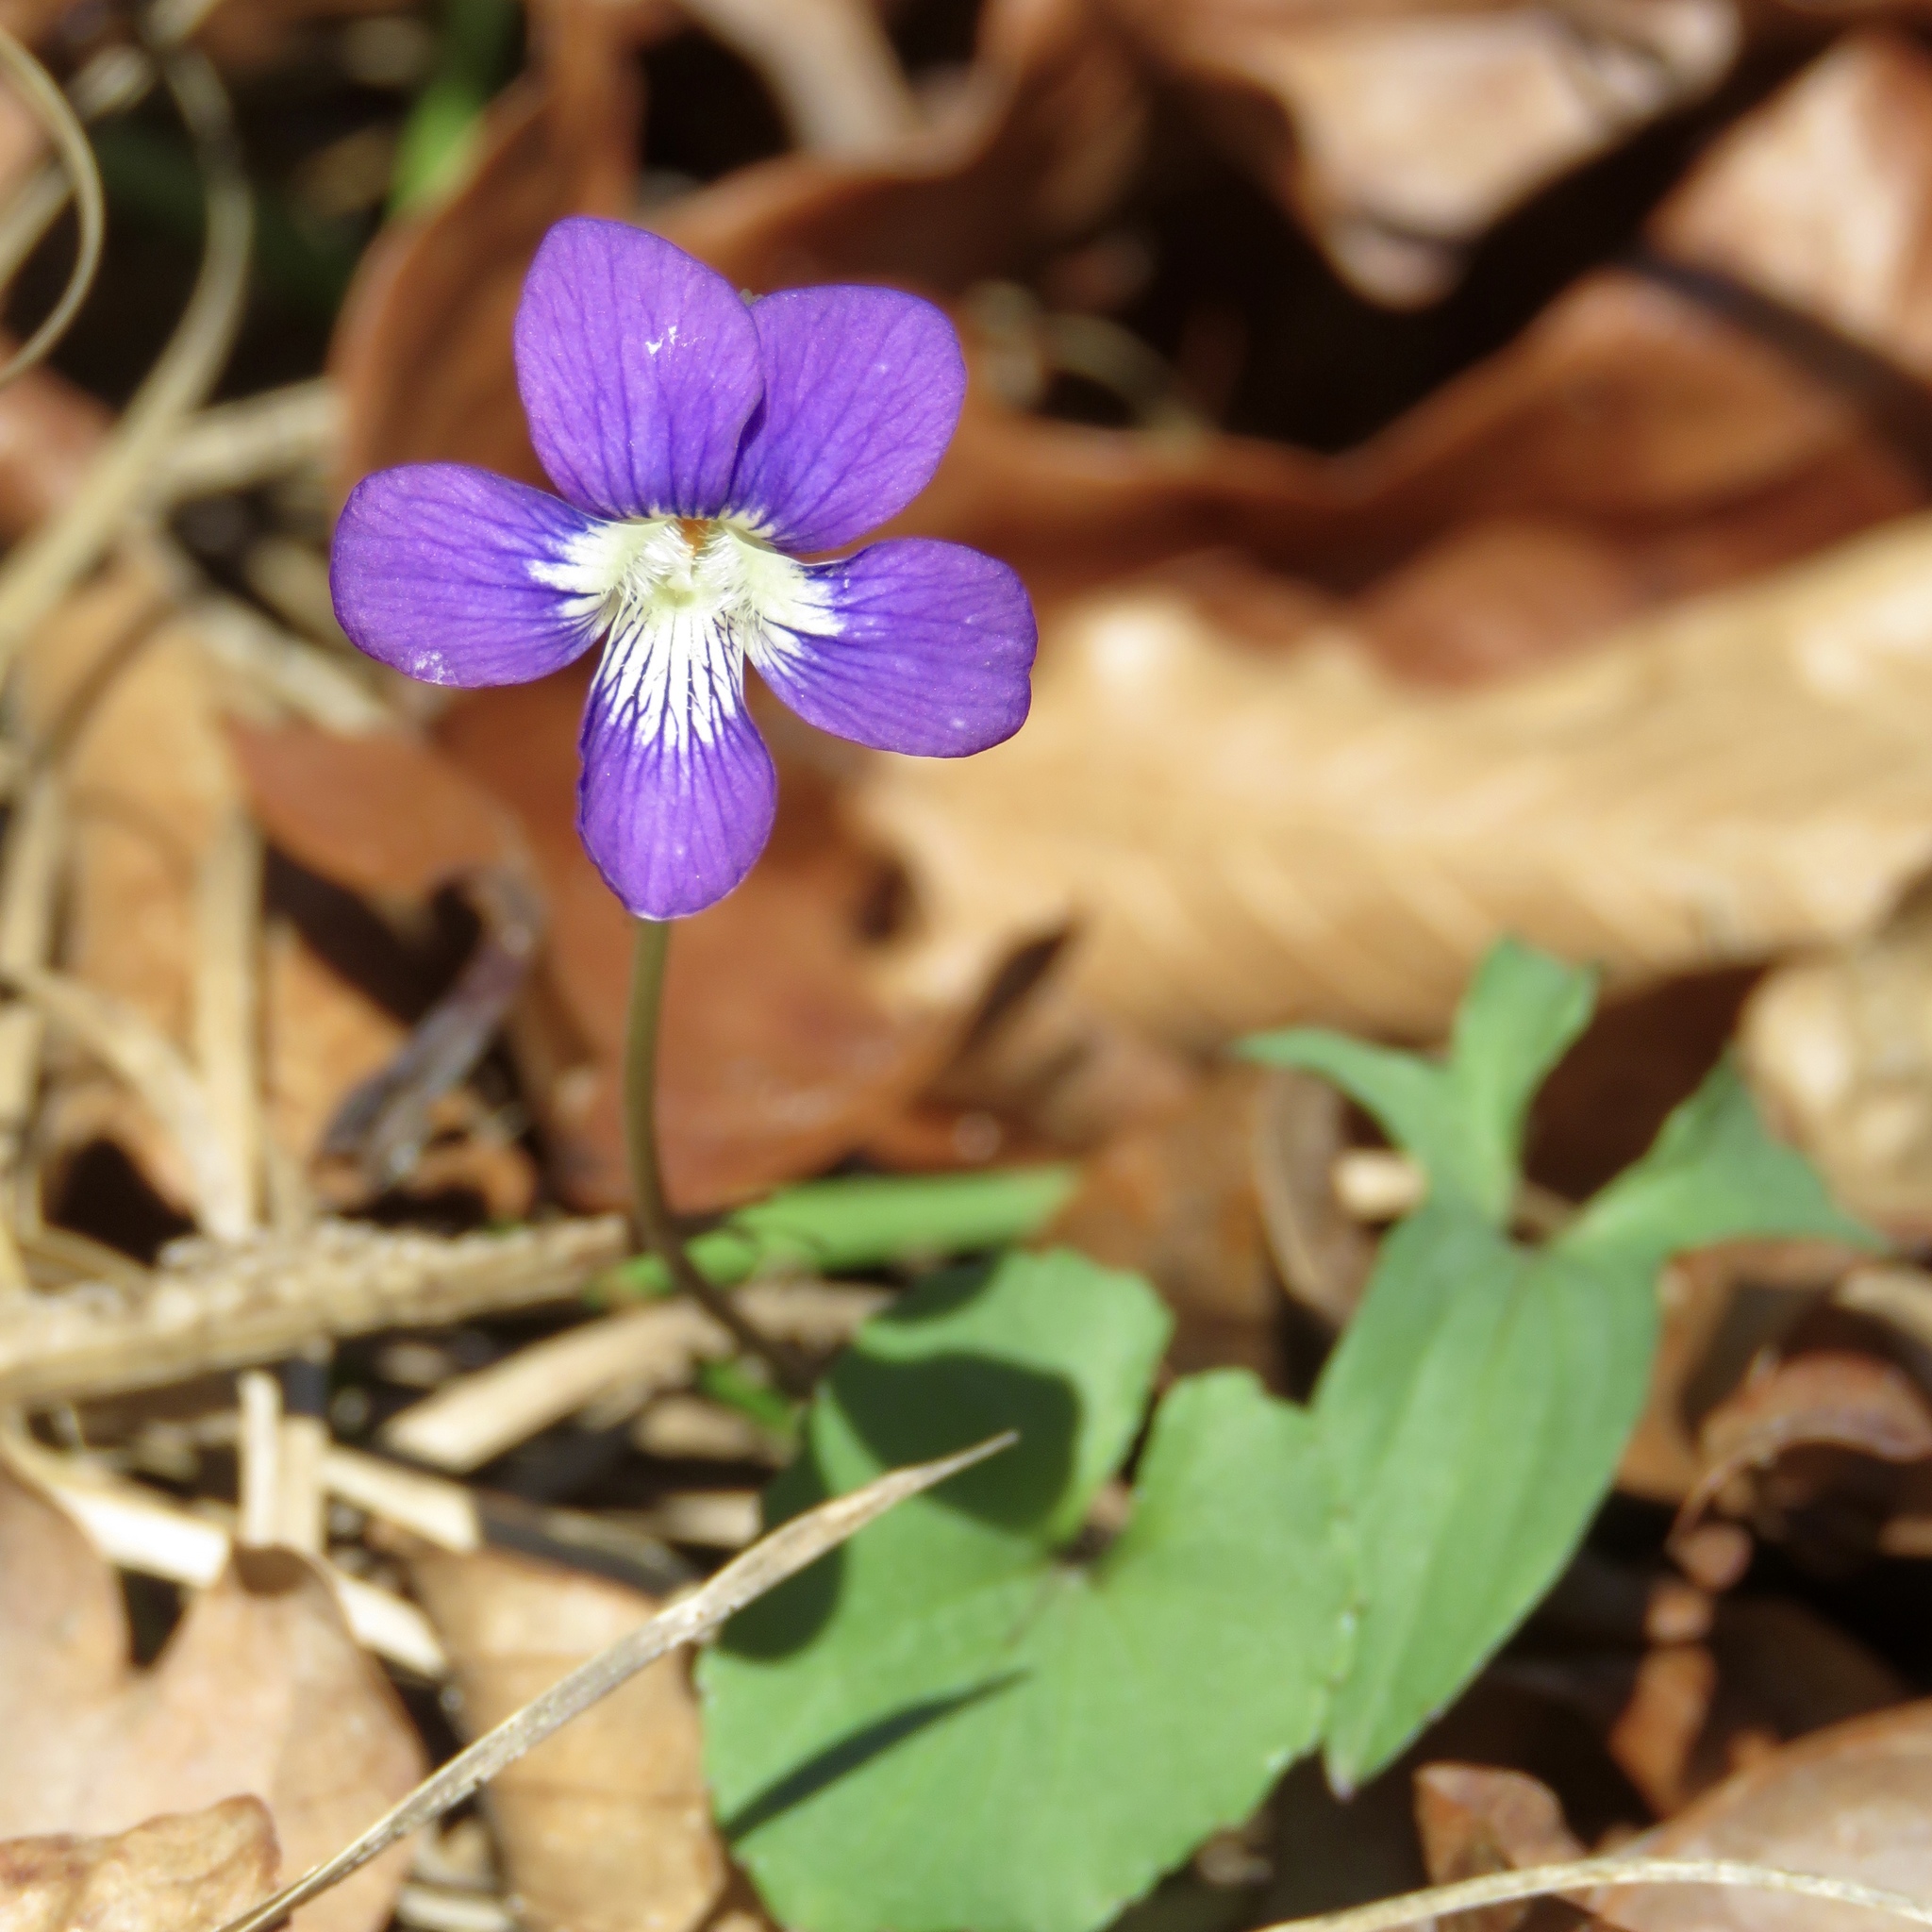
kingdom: Plantae
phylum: Tracheophyta
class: Magnoliopsida
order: Malpighiales
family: Violaceae
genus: Viola
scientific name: Viola palmata
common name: Early blue violet
